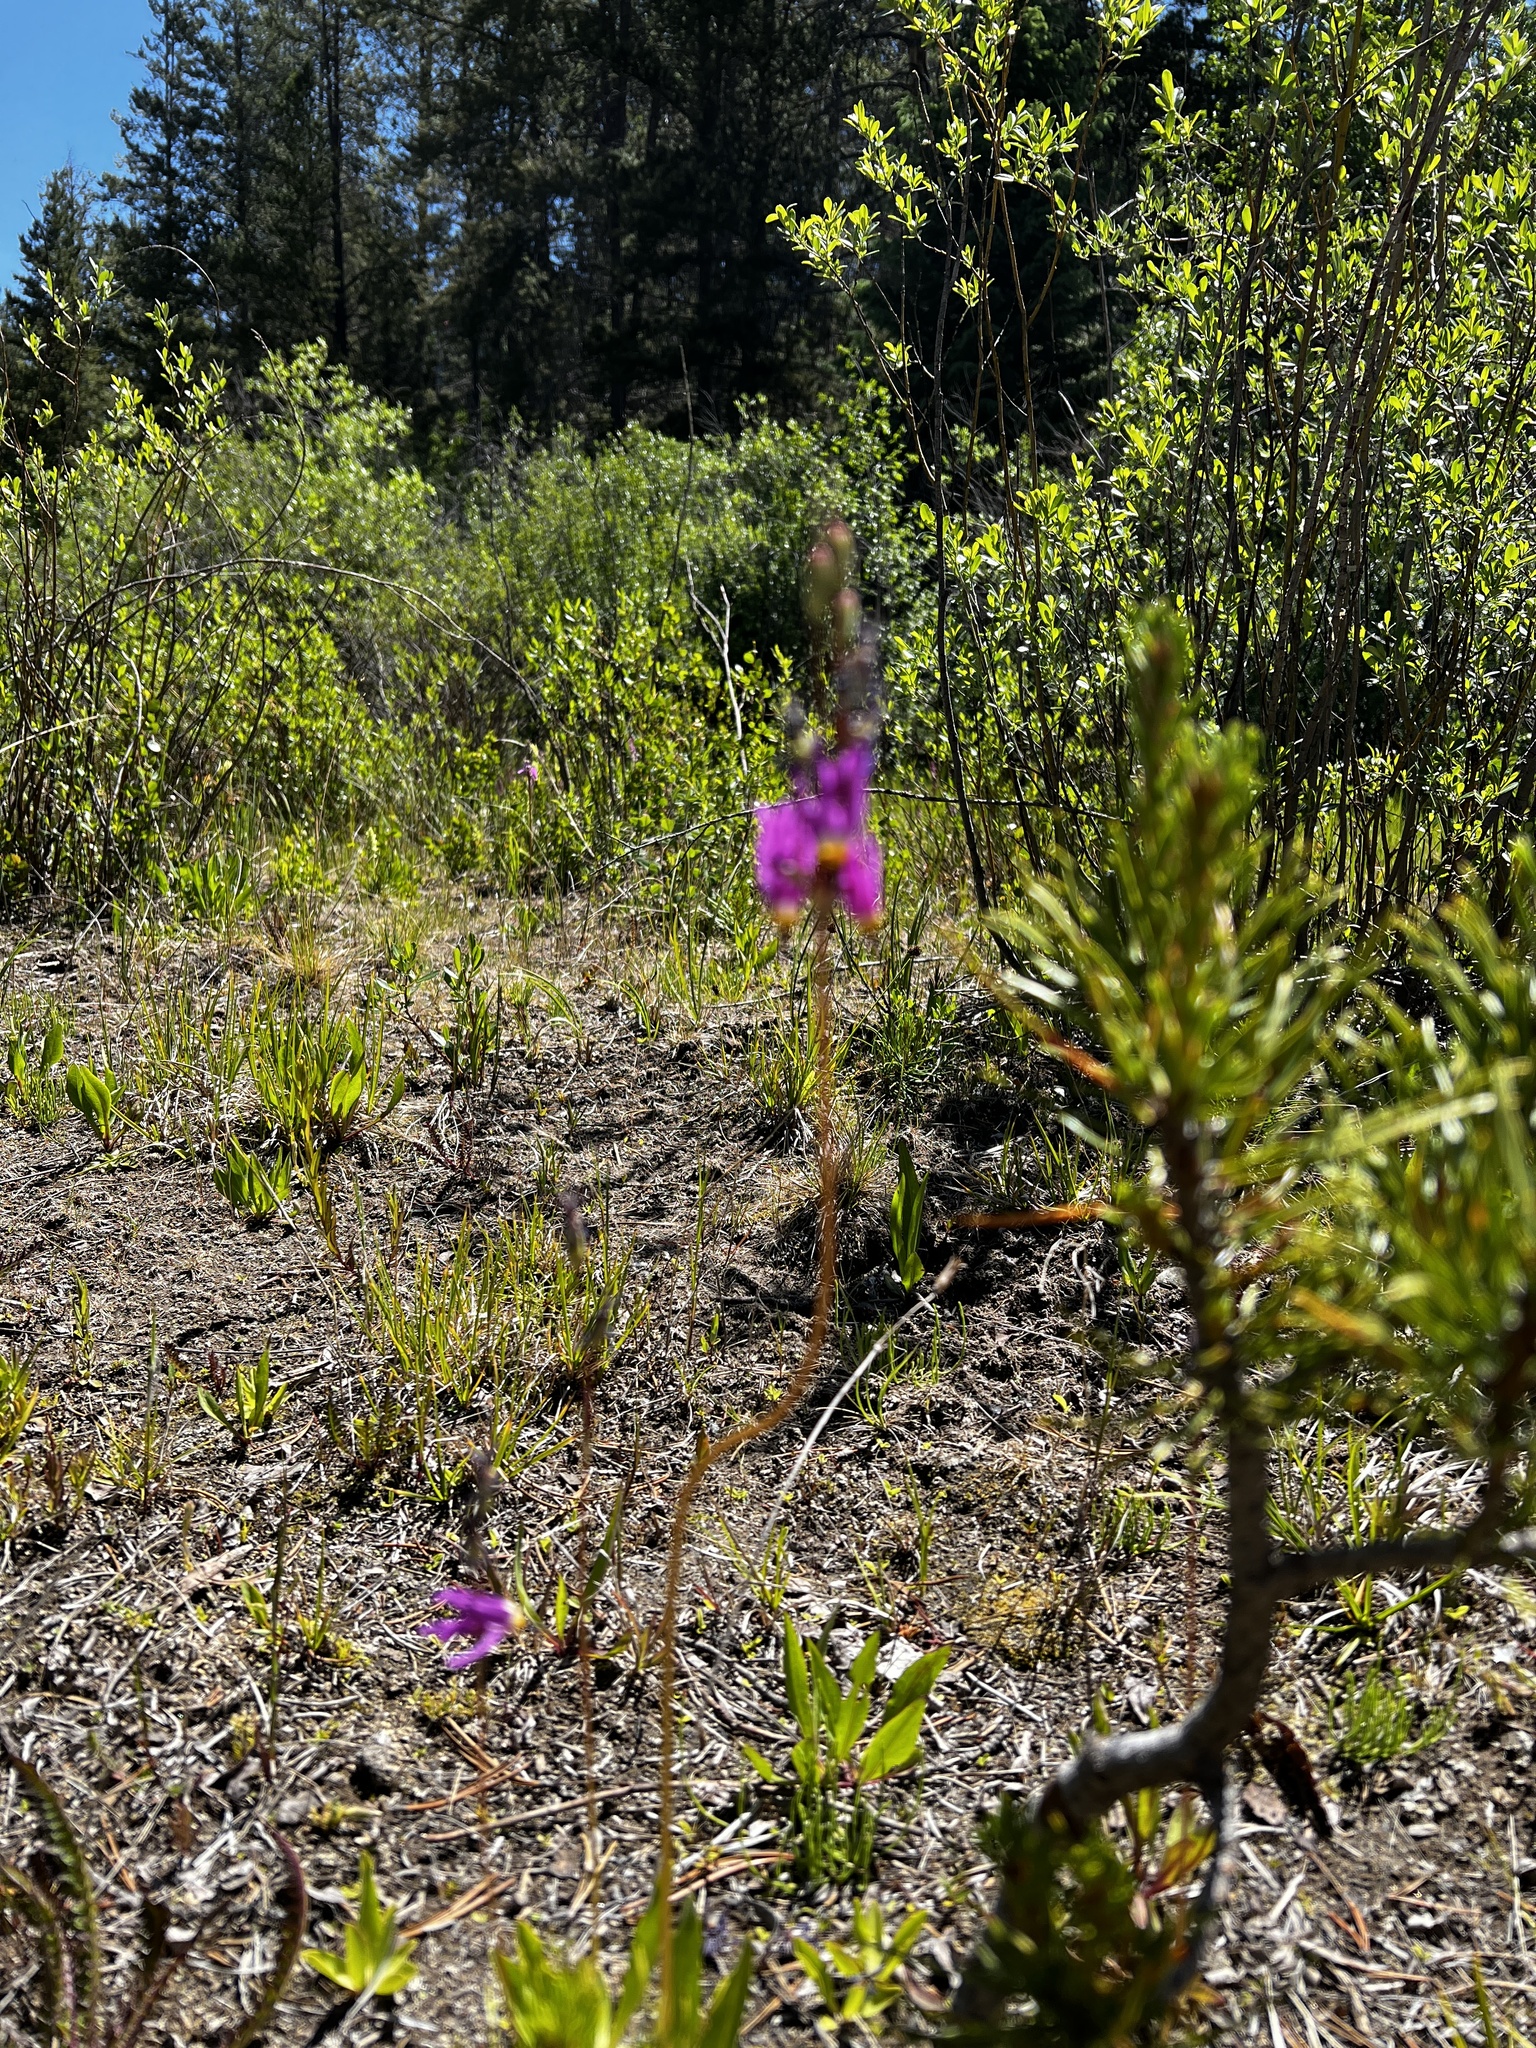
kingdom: Plantae
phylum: Tracheophyta
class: Magnoliopsida
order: Ericales
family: Primulaceae
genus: Dodecatheon
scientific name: Dodecatheon pulchellum
